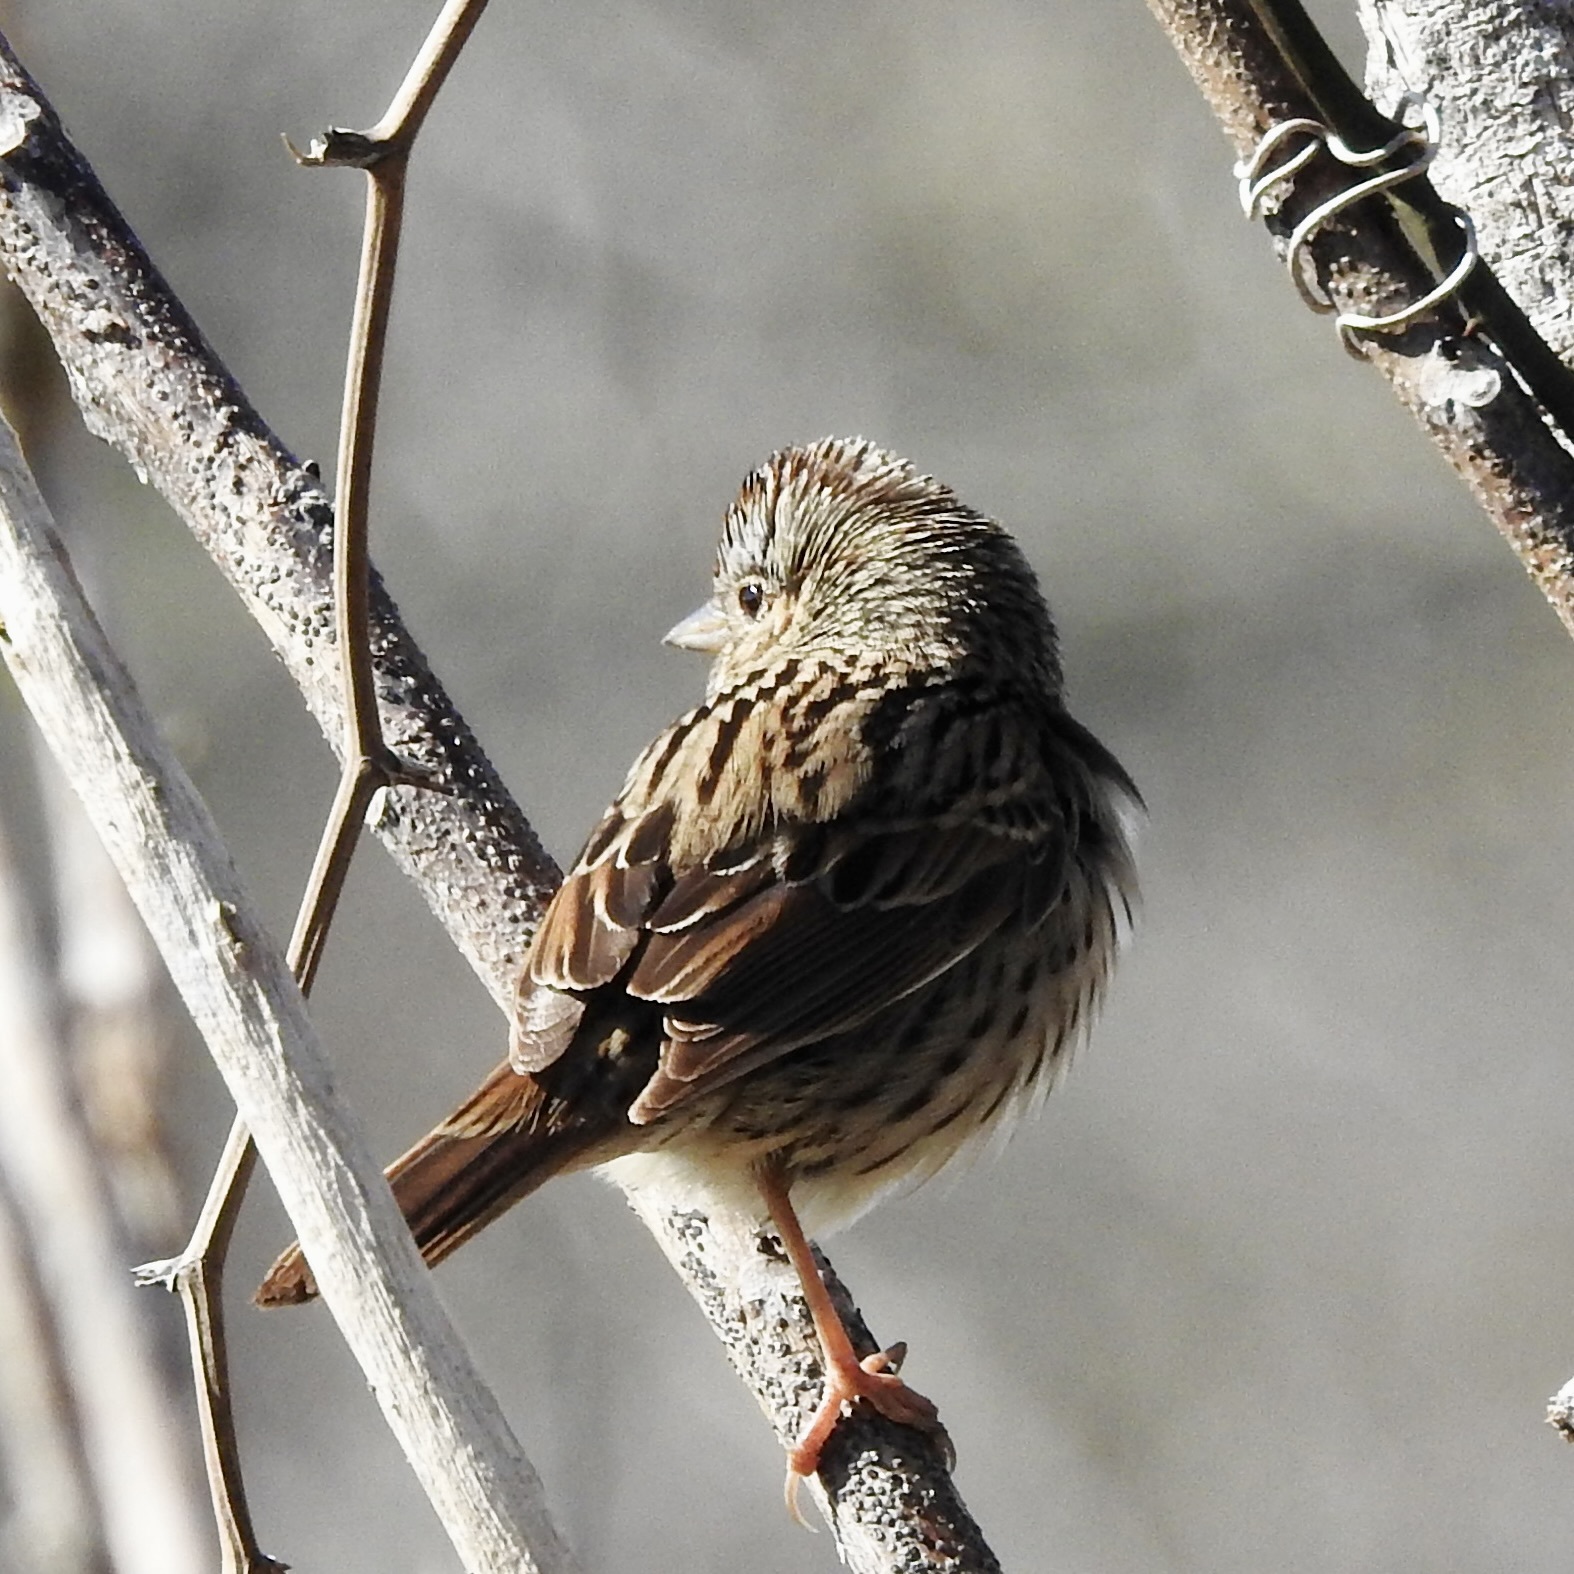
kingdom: Animalia
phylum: Chordata
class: Aves
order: Passeriformes
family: Passerellidae
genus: Melospiza
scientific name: Melospiza lincolnii
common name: Lincoln's sparrow
